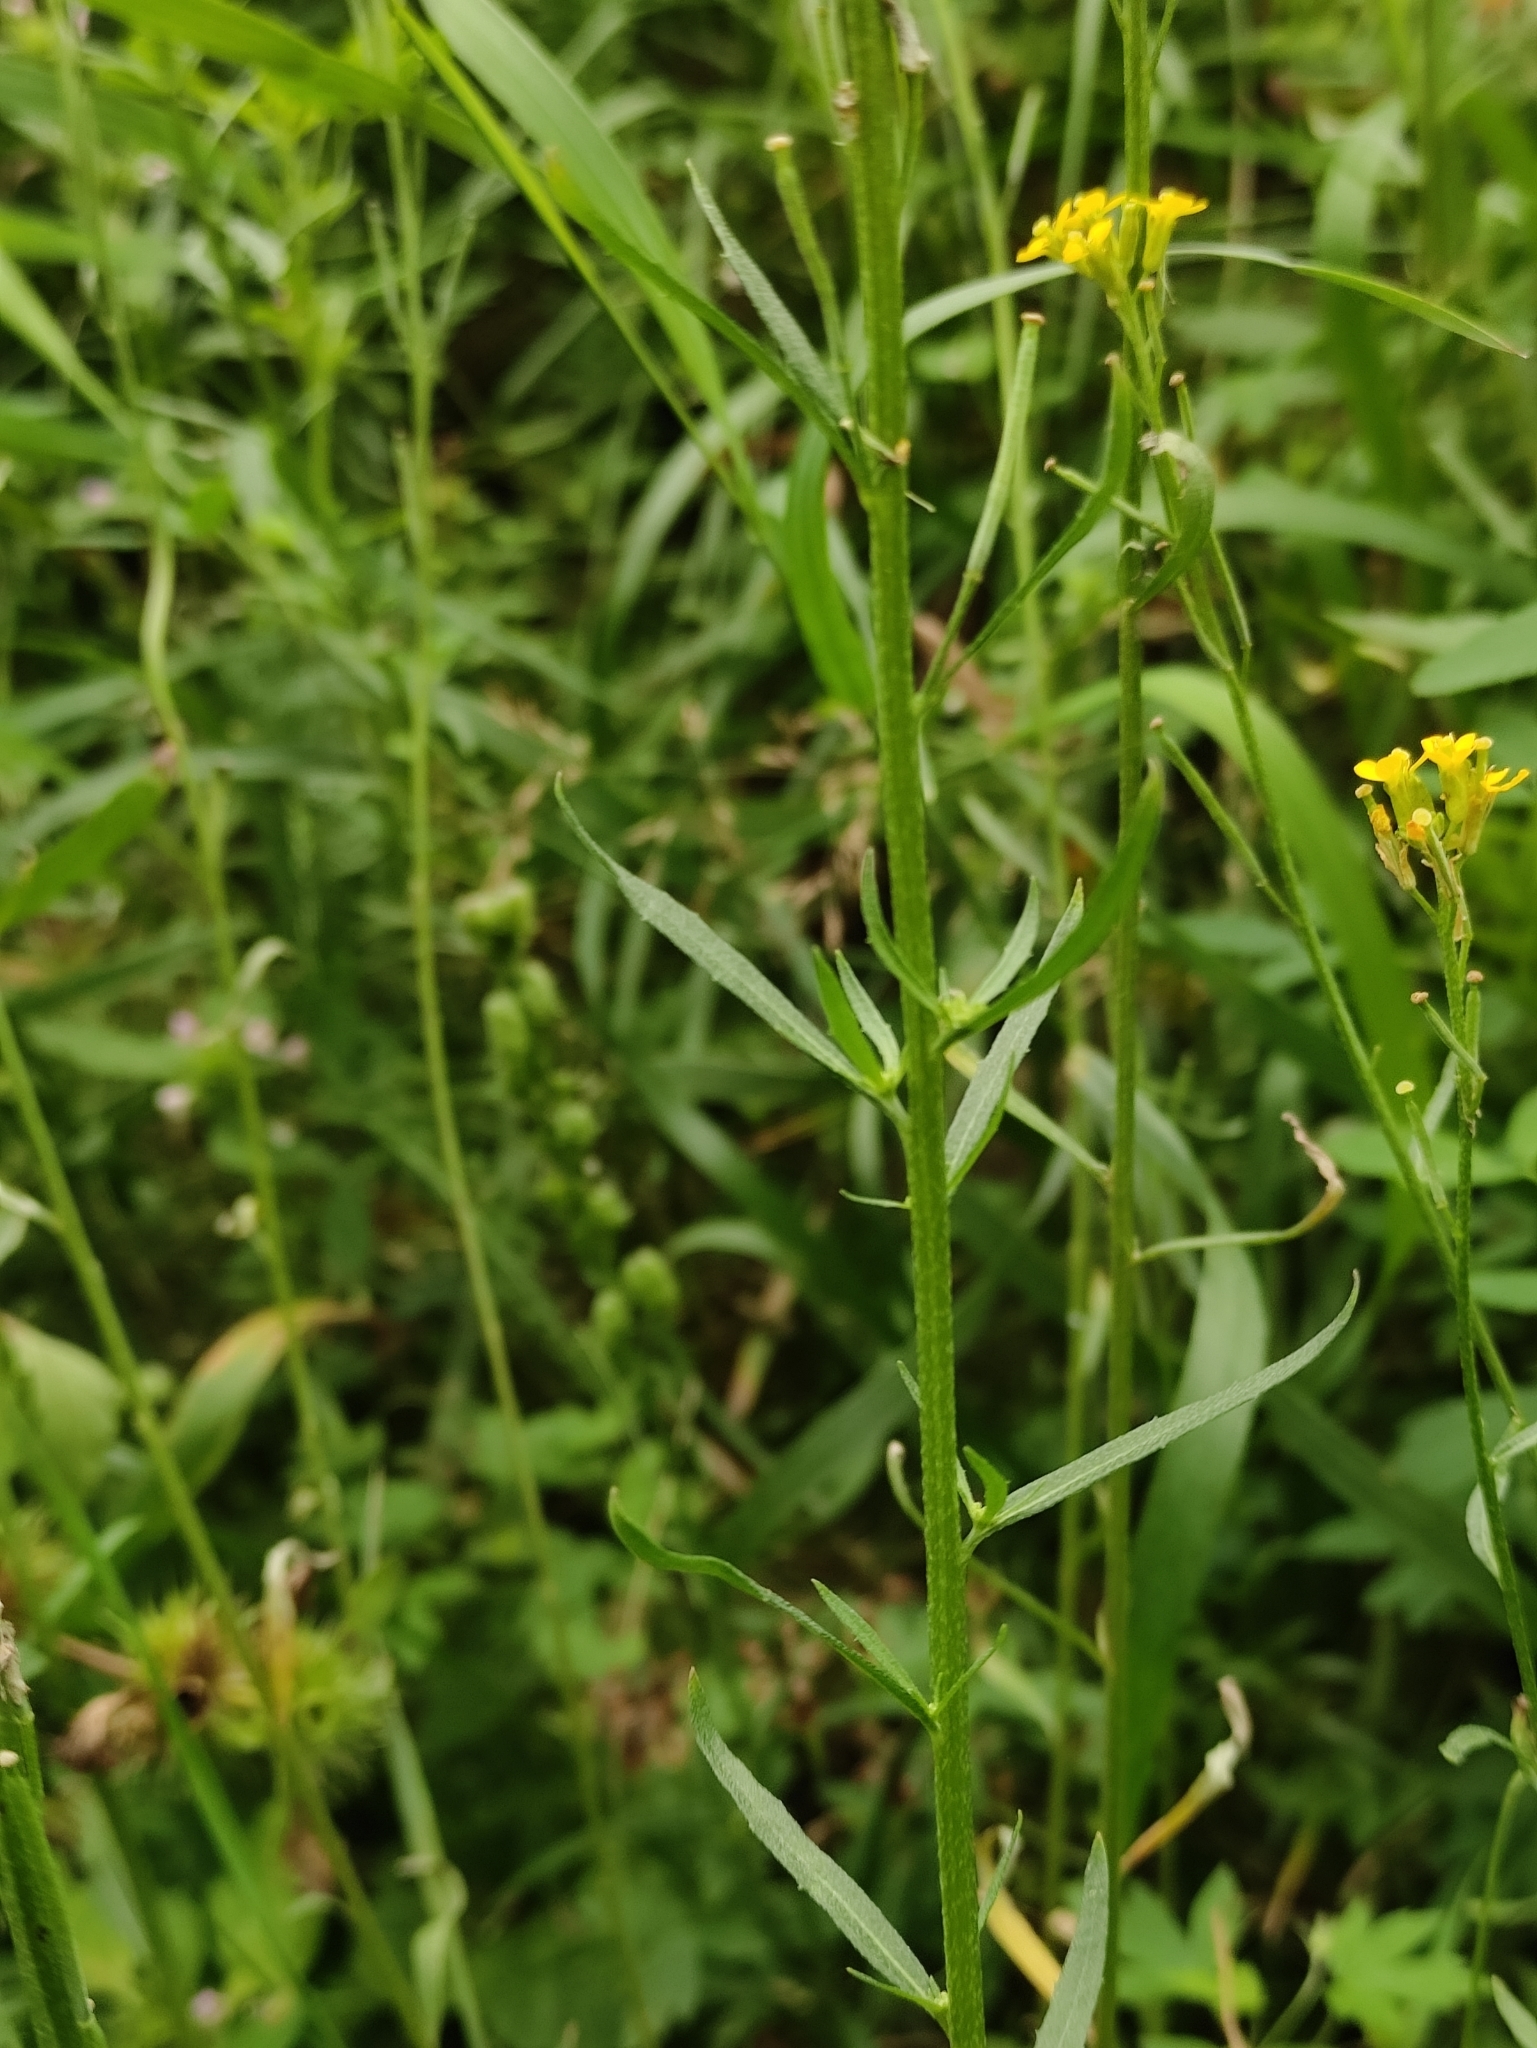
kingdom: Plantae
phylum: Tracheophyta
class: Magnoliopsida
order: Brassicales
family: Brassicaceae
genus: Erysimum
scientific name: Erysimum hieraciifolium
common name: European wallflower
